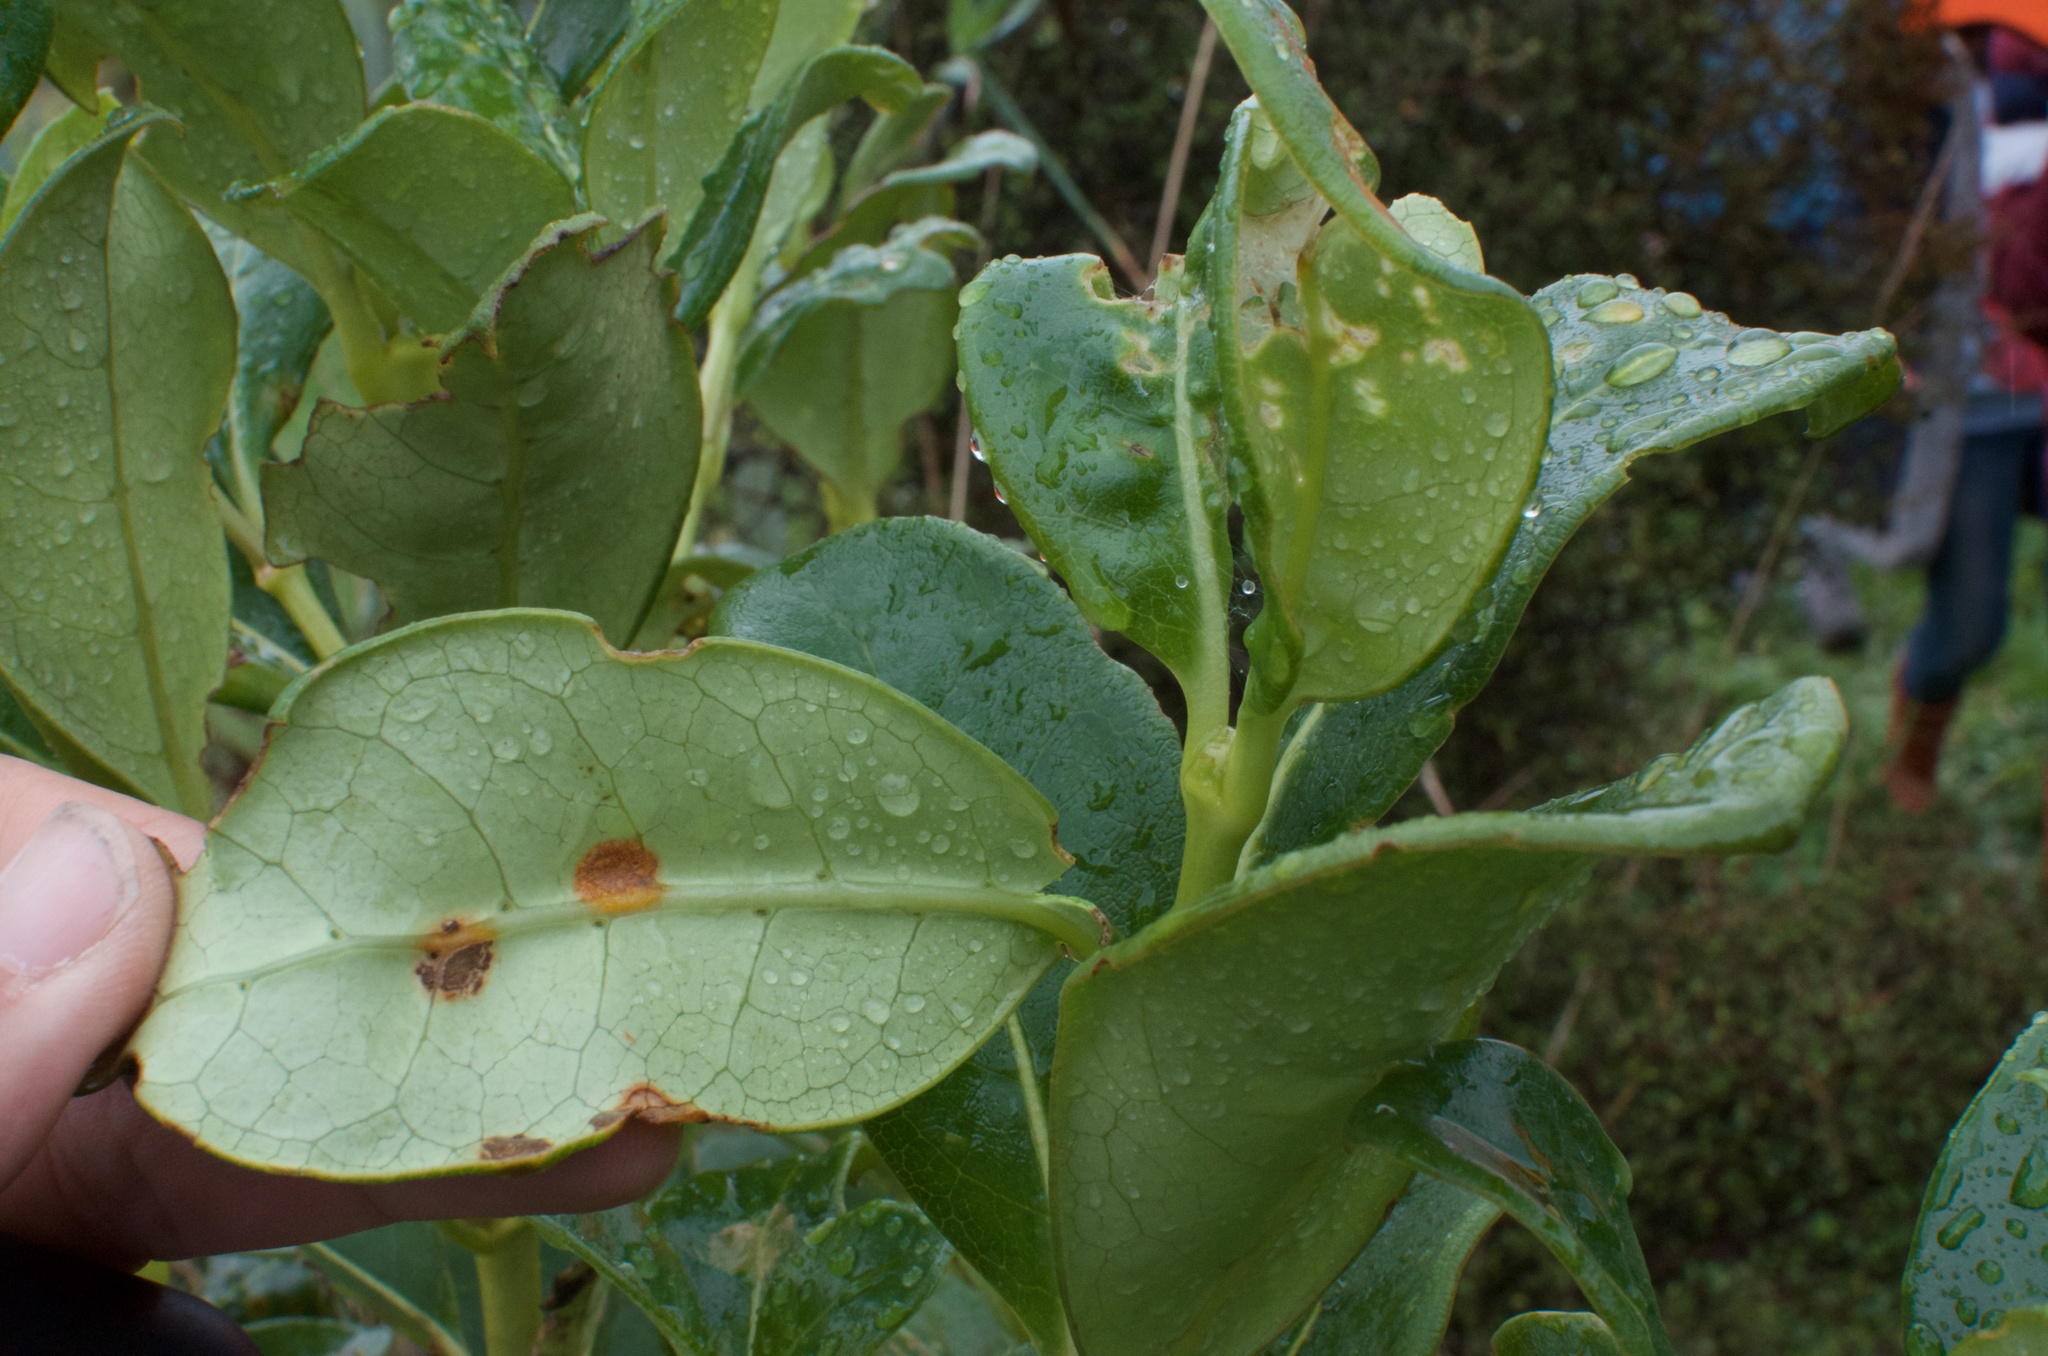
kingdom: Fungi
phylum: Basidiomycota
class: Pucciniomycetes
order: Pucciniales
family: Pucciniaceae
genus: Puccinia
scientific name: Puccinia coprosmae
